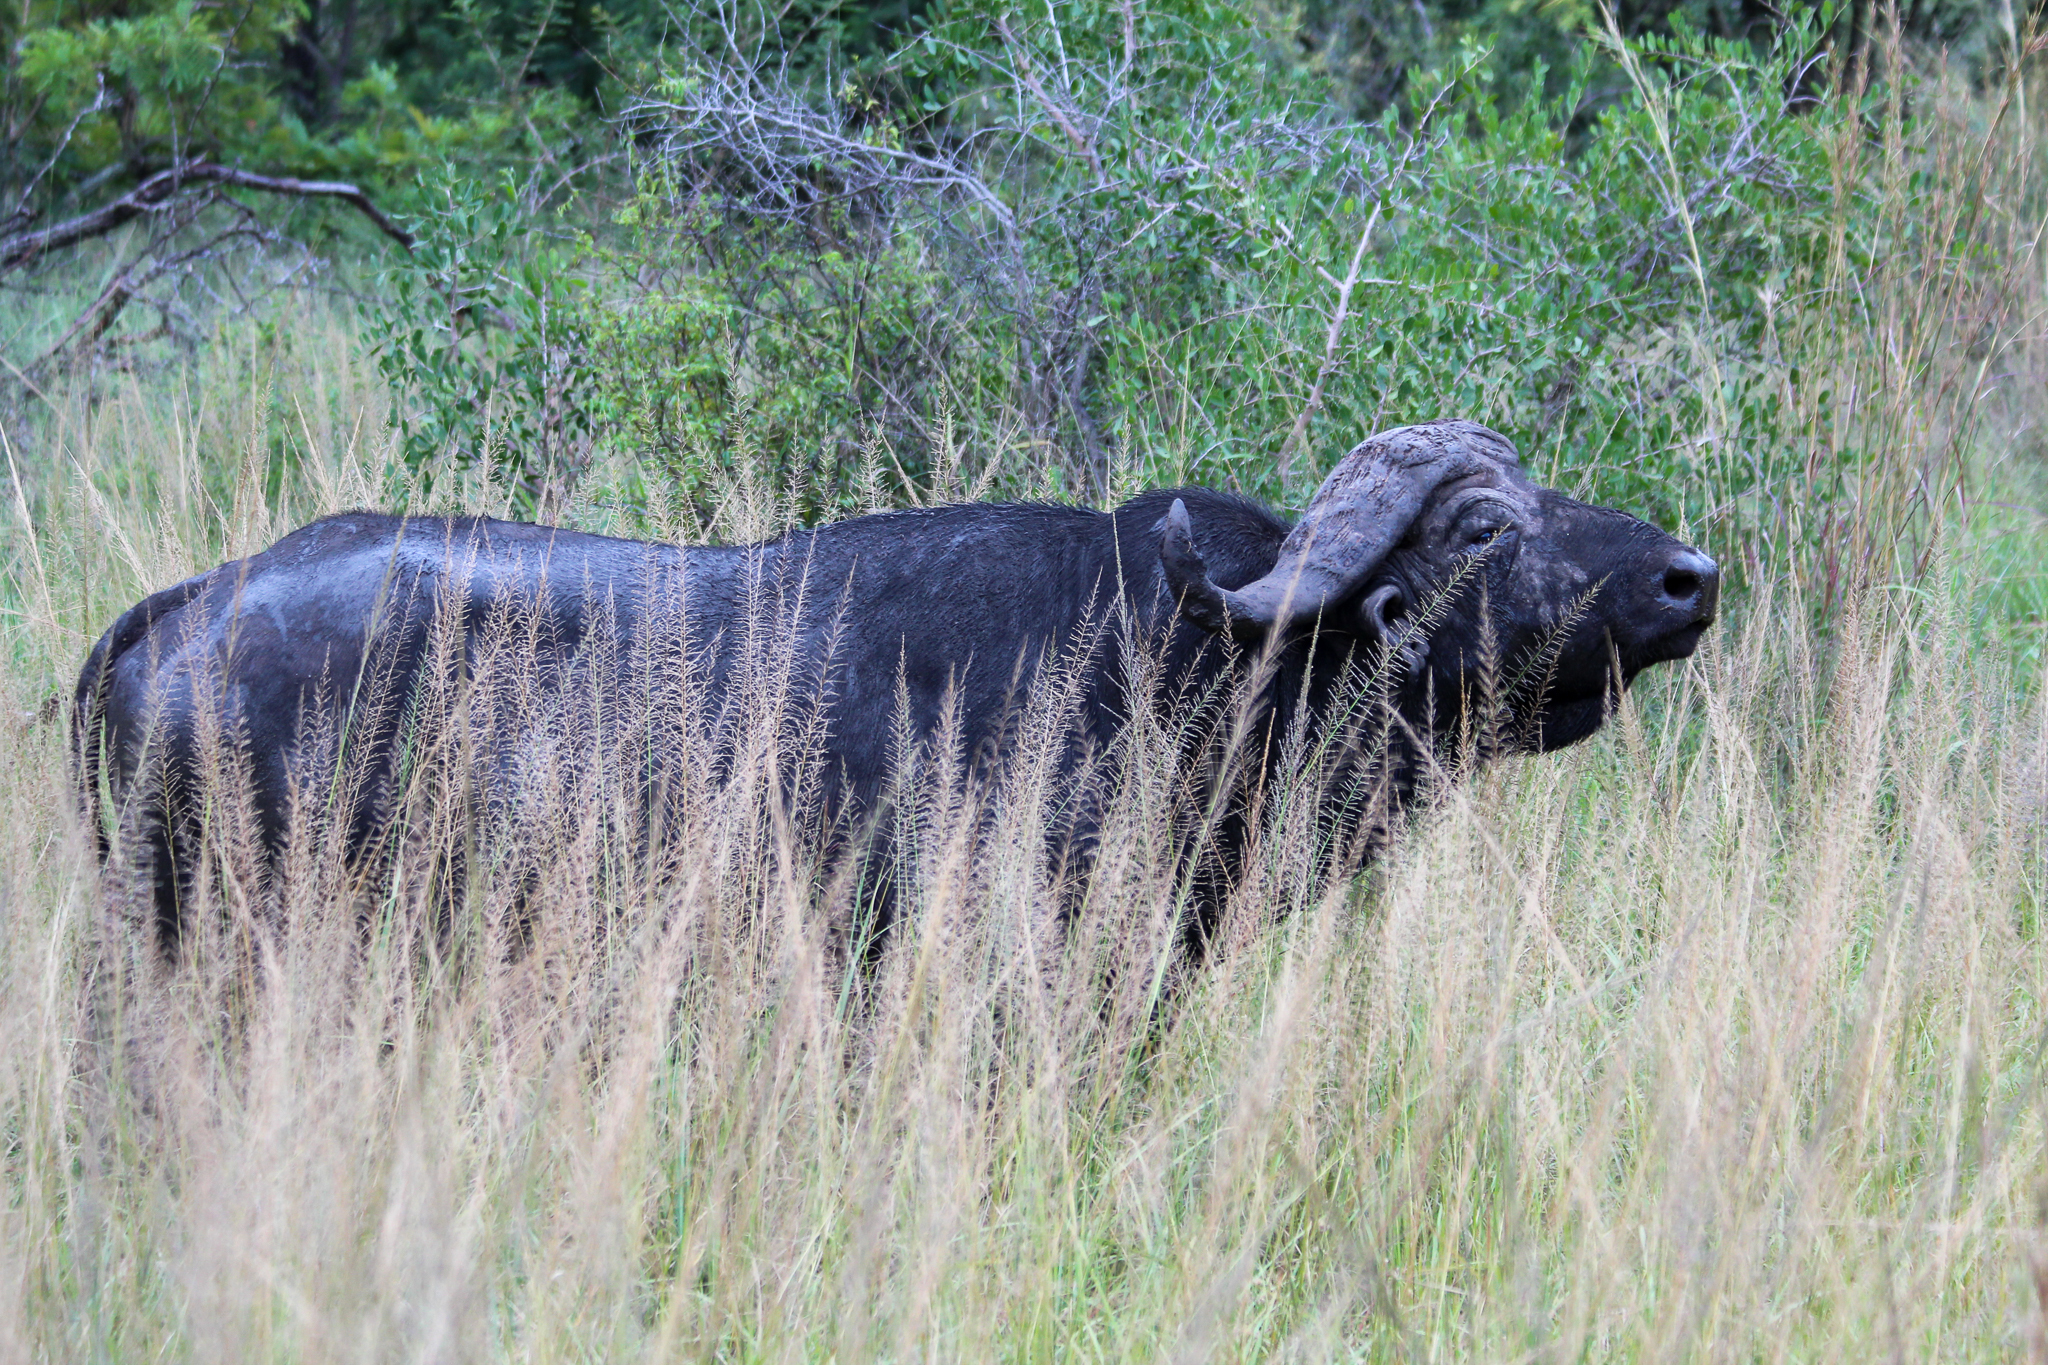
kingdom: Animalia
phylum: Chordata
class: Mammalia
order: Artiodactyla
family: Bovidae
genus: Syncerus
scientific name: Syncerus caffer
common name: African buffalo
